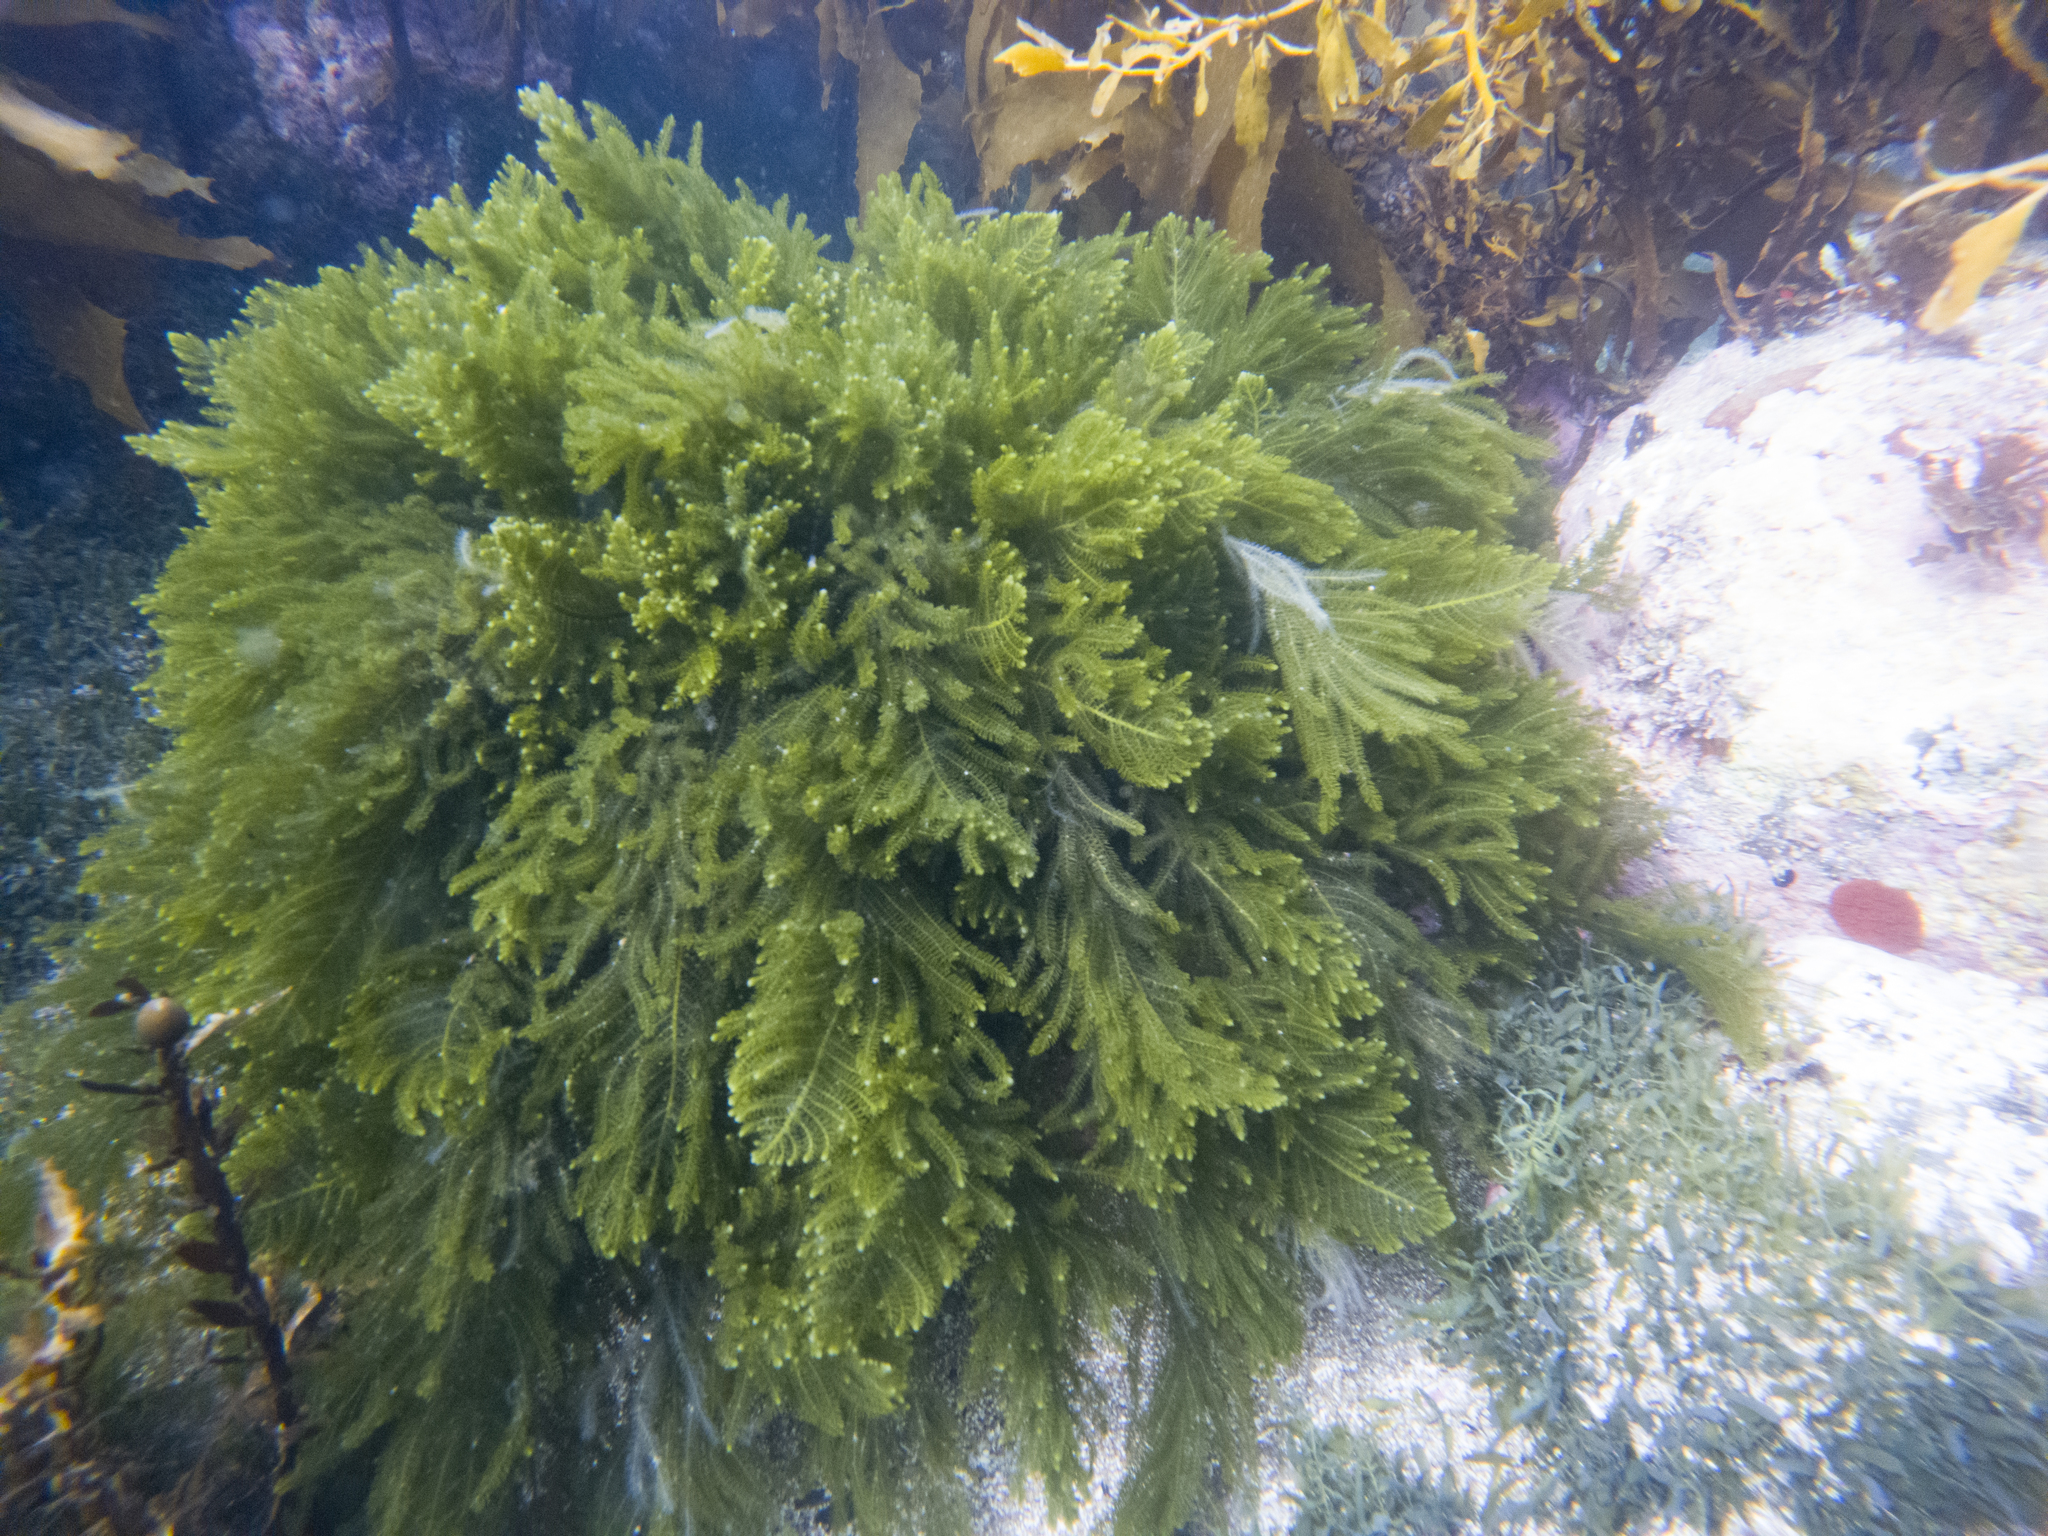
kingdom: Plantae
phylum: Chlorophyta
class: Ulvophyceae
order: Bryopsidales
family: Caulerpaceae
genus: Caulerpa
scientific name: Caulerpa flexilis
